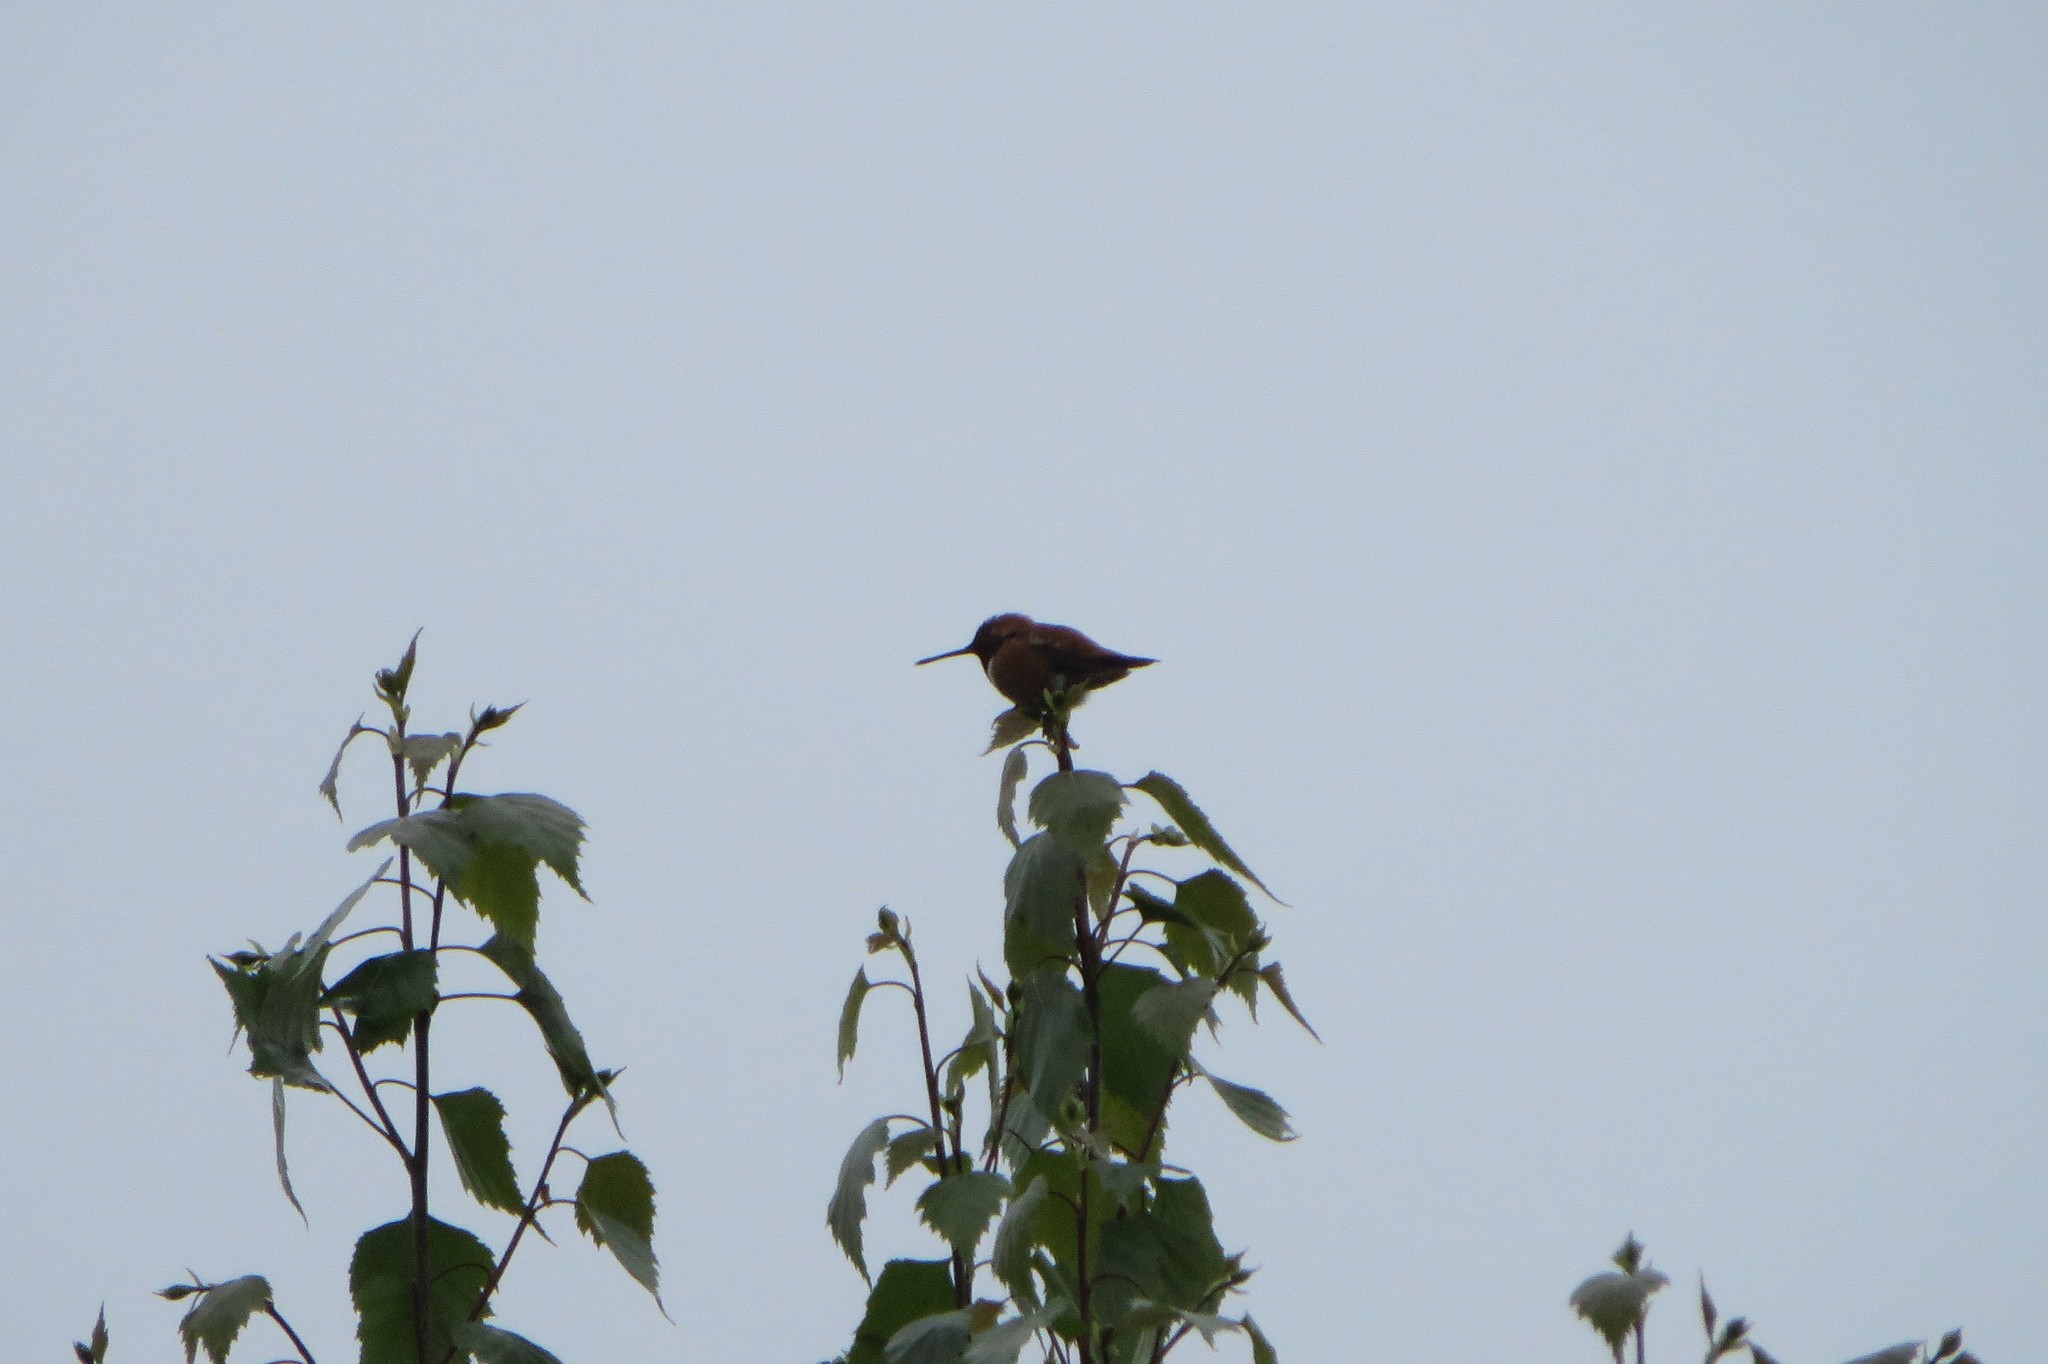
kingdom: Animalia
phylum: Chordata
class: Aves
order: Apodiformes
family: Trochilidae
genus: Selasphorus
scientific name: Selasphorus rufus
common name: Rufous hummingbird
